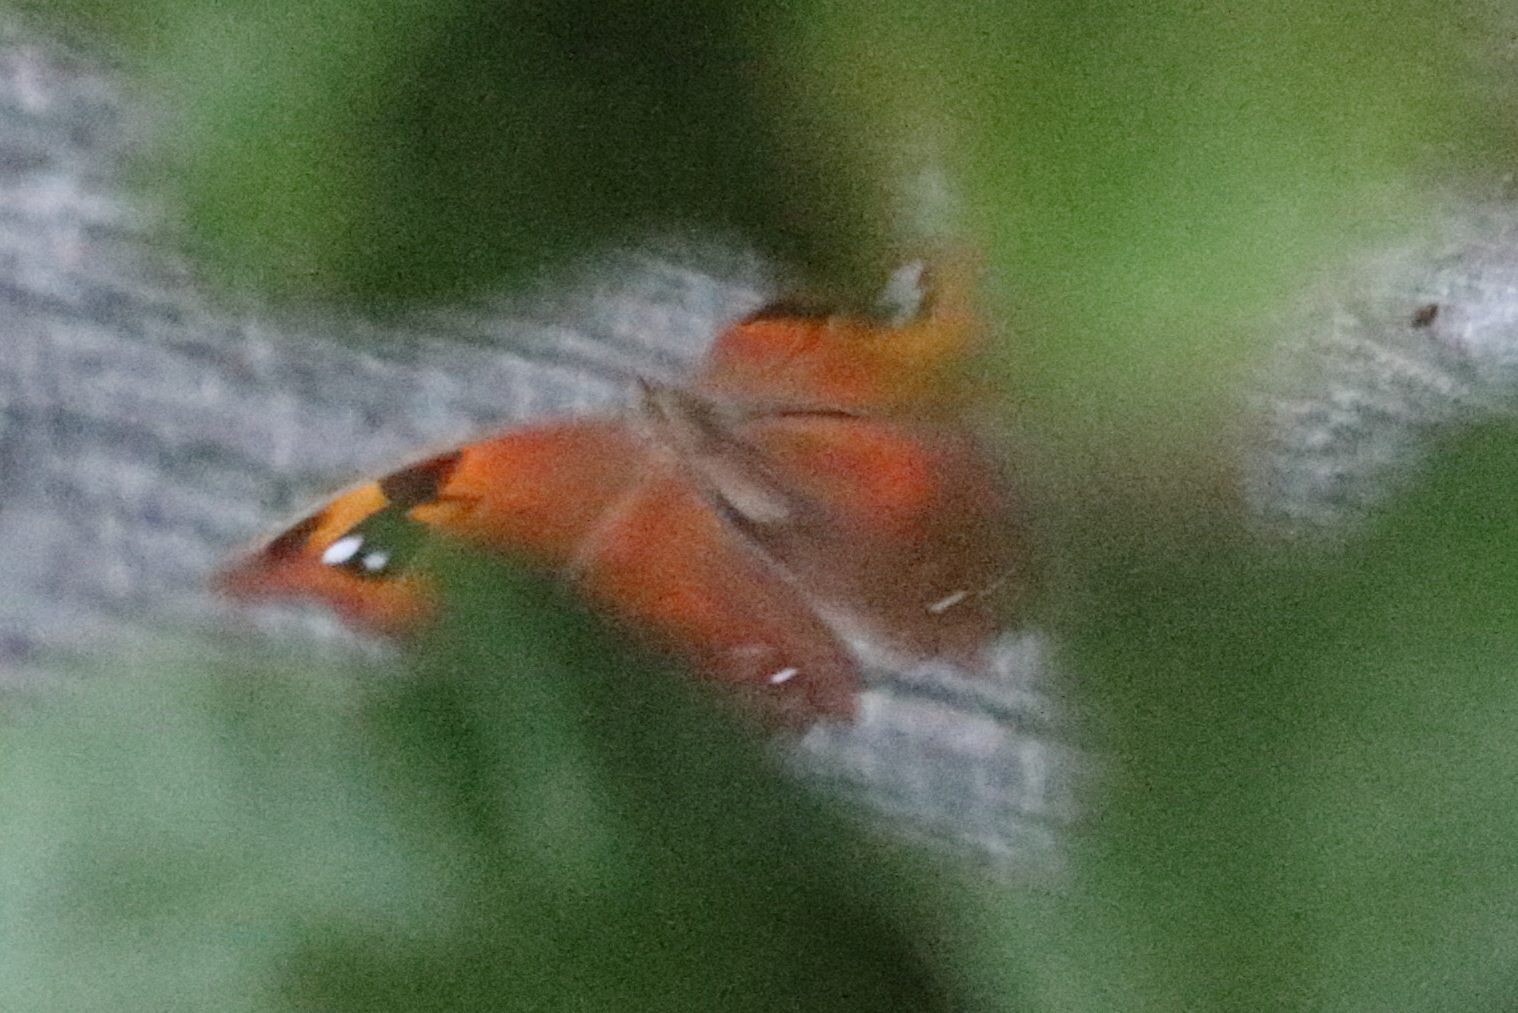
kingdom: Animalia
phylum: Arthropoda
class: Insecta
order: Lepidoptera
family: Nymphalidae
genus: Melanitis
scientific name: Melanitis leda
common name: Twilight brown
